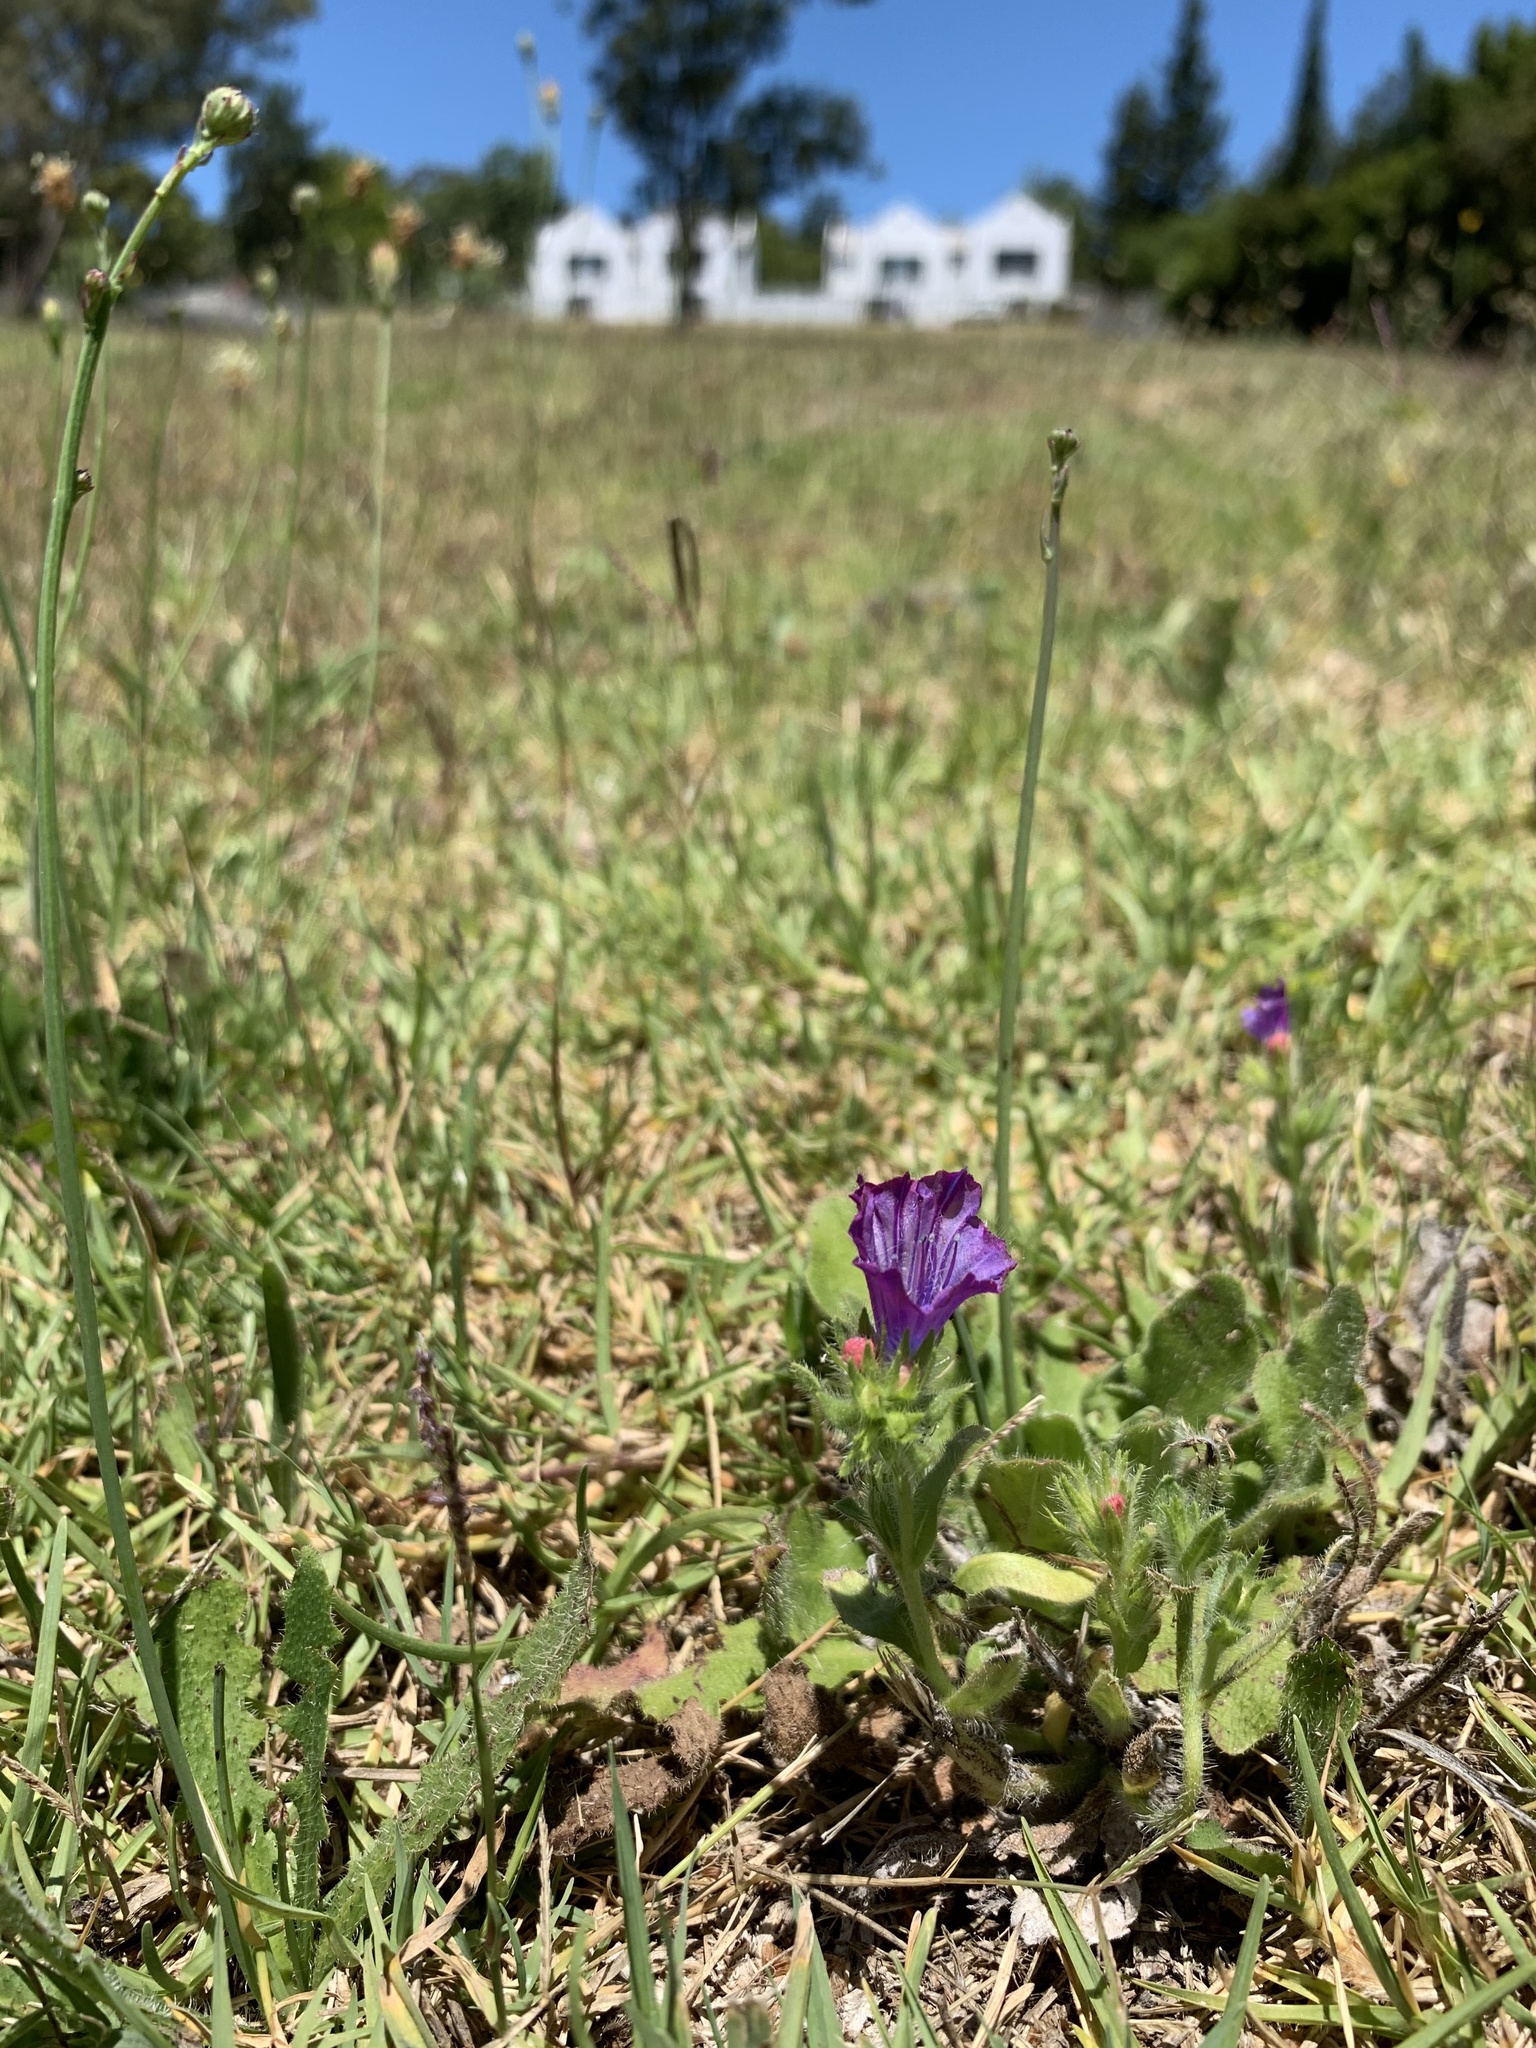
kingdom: Plantae
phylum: Tracheophyta
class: Magnoliopsida
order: Boraginales
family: Boraginaceae
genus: Echium
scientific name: Echium plantagineum
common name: Purple viper's-bugloss
